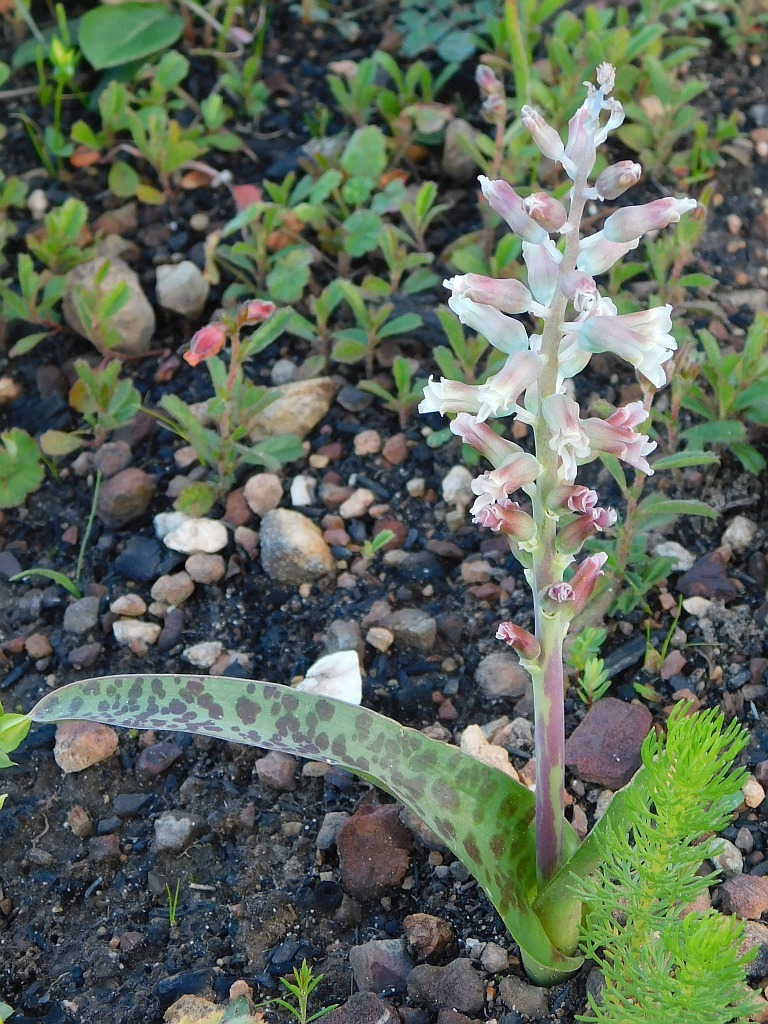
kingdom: Plantae
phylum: Tracheophyta
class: Liliopsida
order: Asparagales
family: Asparagaceae
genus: Lachenalia
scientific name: Lachenalia judithiae
